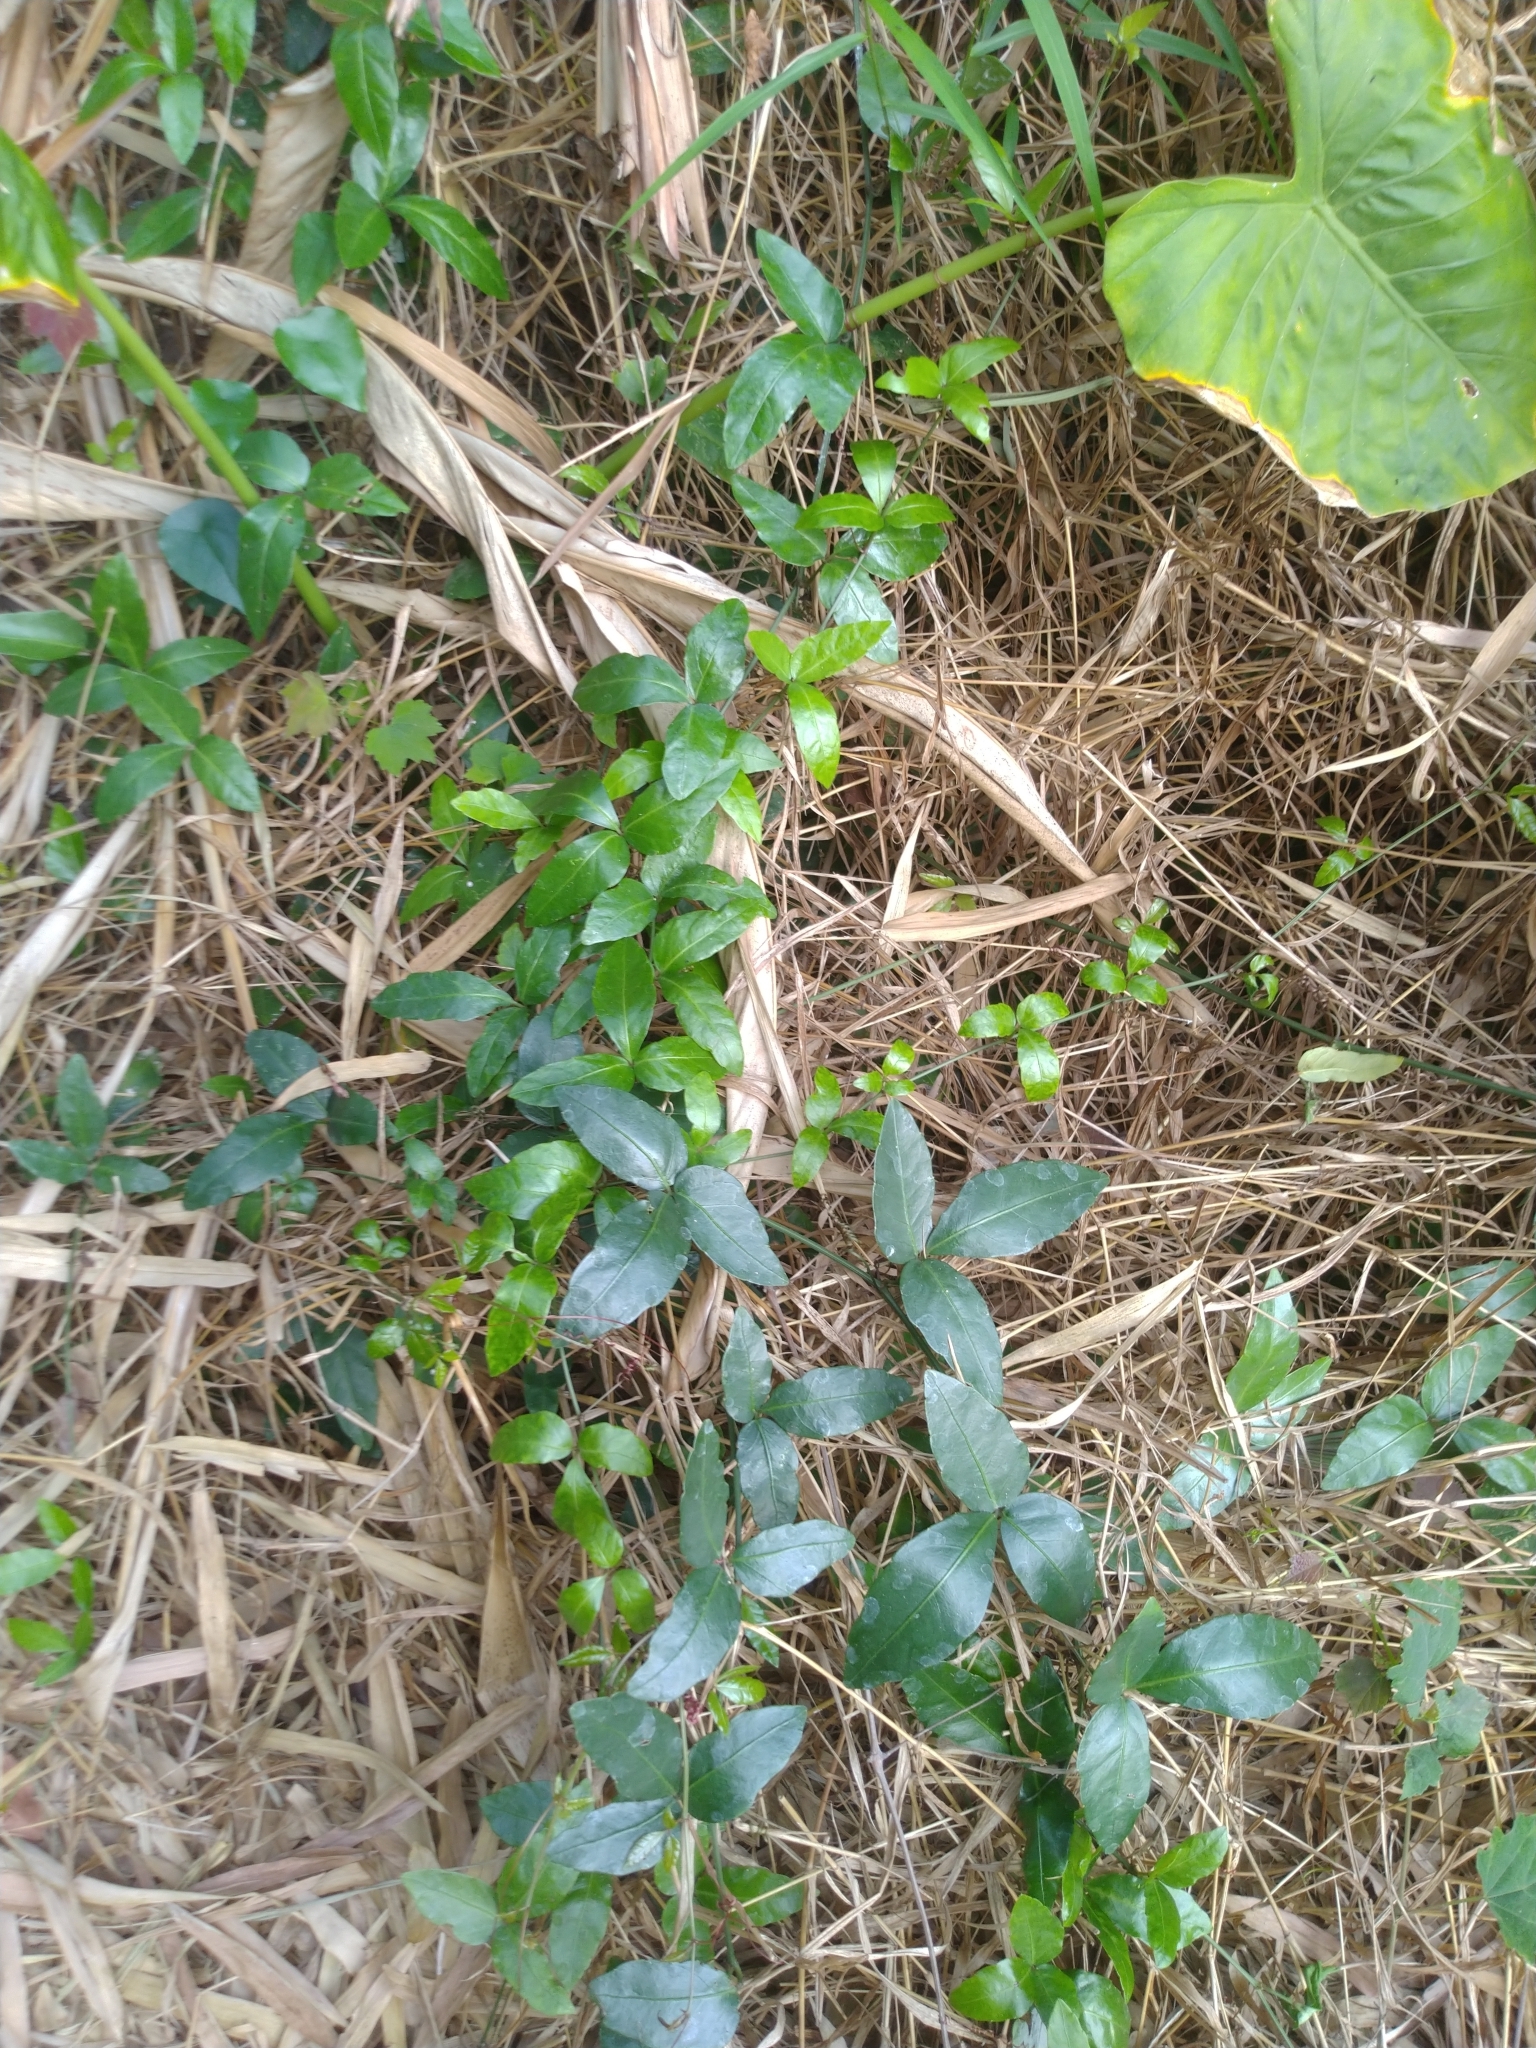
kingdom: Plantae
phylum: Tracheophyta
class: Magnoliopsida
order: Vitales
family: Vitaceae
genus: Tetrastigma
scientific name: Tetrastigma formosanum
